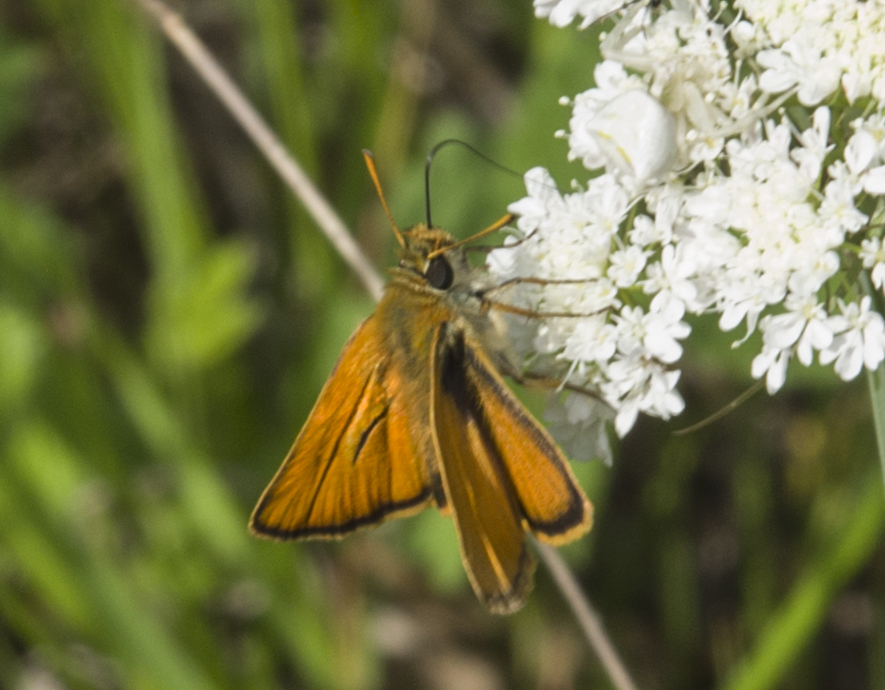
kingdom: Animalia
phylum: Arthropoda
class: Insecta
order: Lepidoptera
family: Hesperiidae
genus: Thymelicus
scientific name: Thymelicus sylvestris
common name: Small skipper
